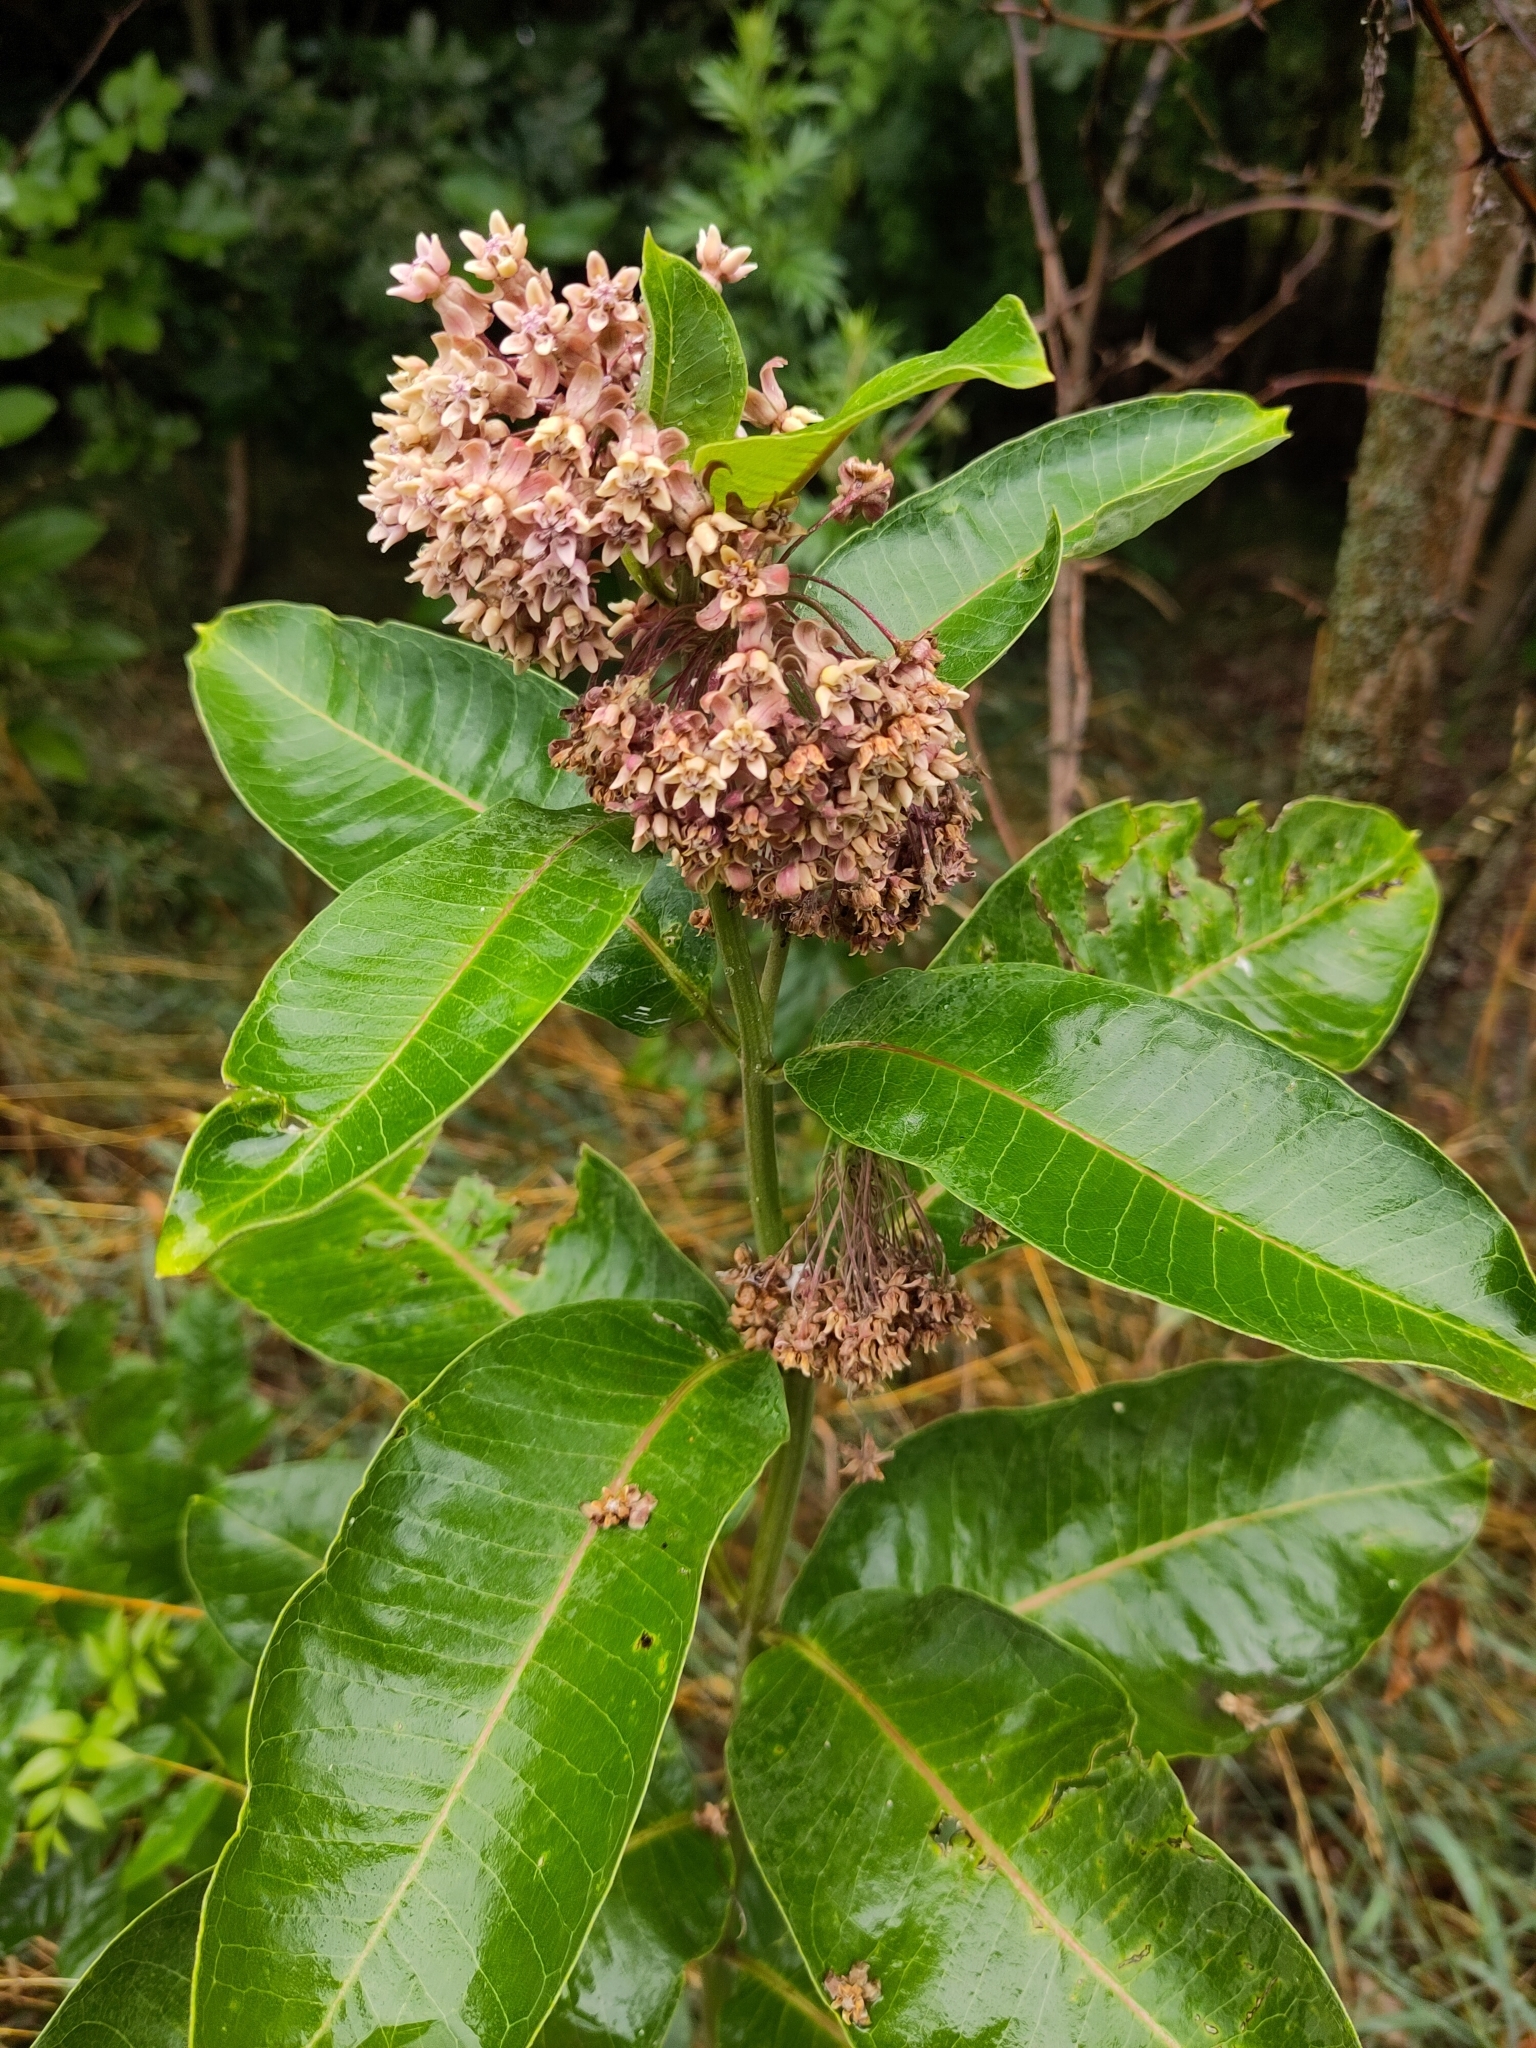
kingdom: Plantae
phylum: Tracheophyta
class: Magnoliopsida
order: Gentianales
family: Apocynaceae
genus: Asclepias
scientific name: Asclepias syriaca
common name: Common milkweed
